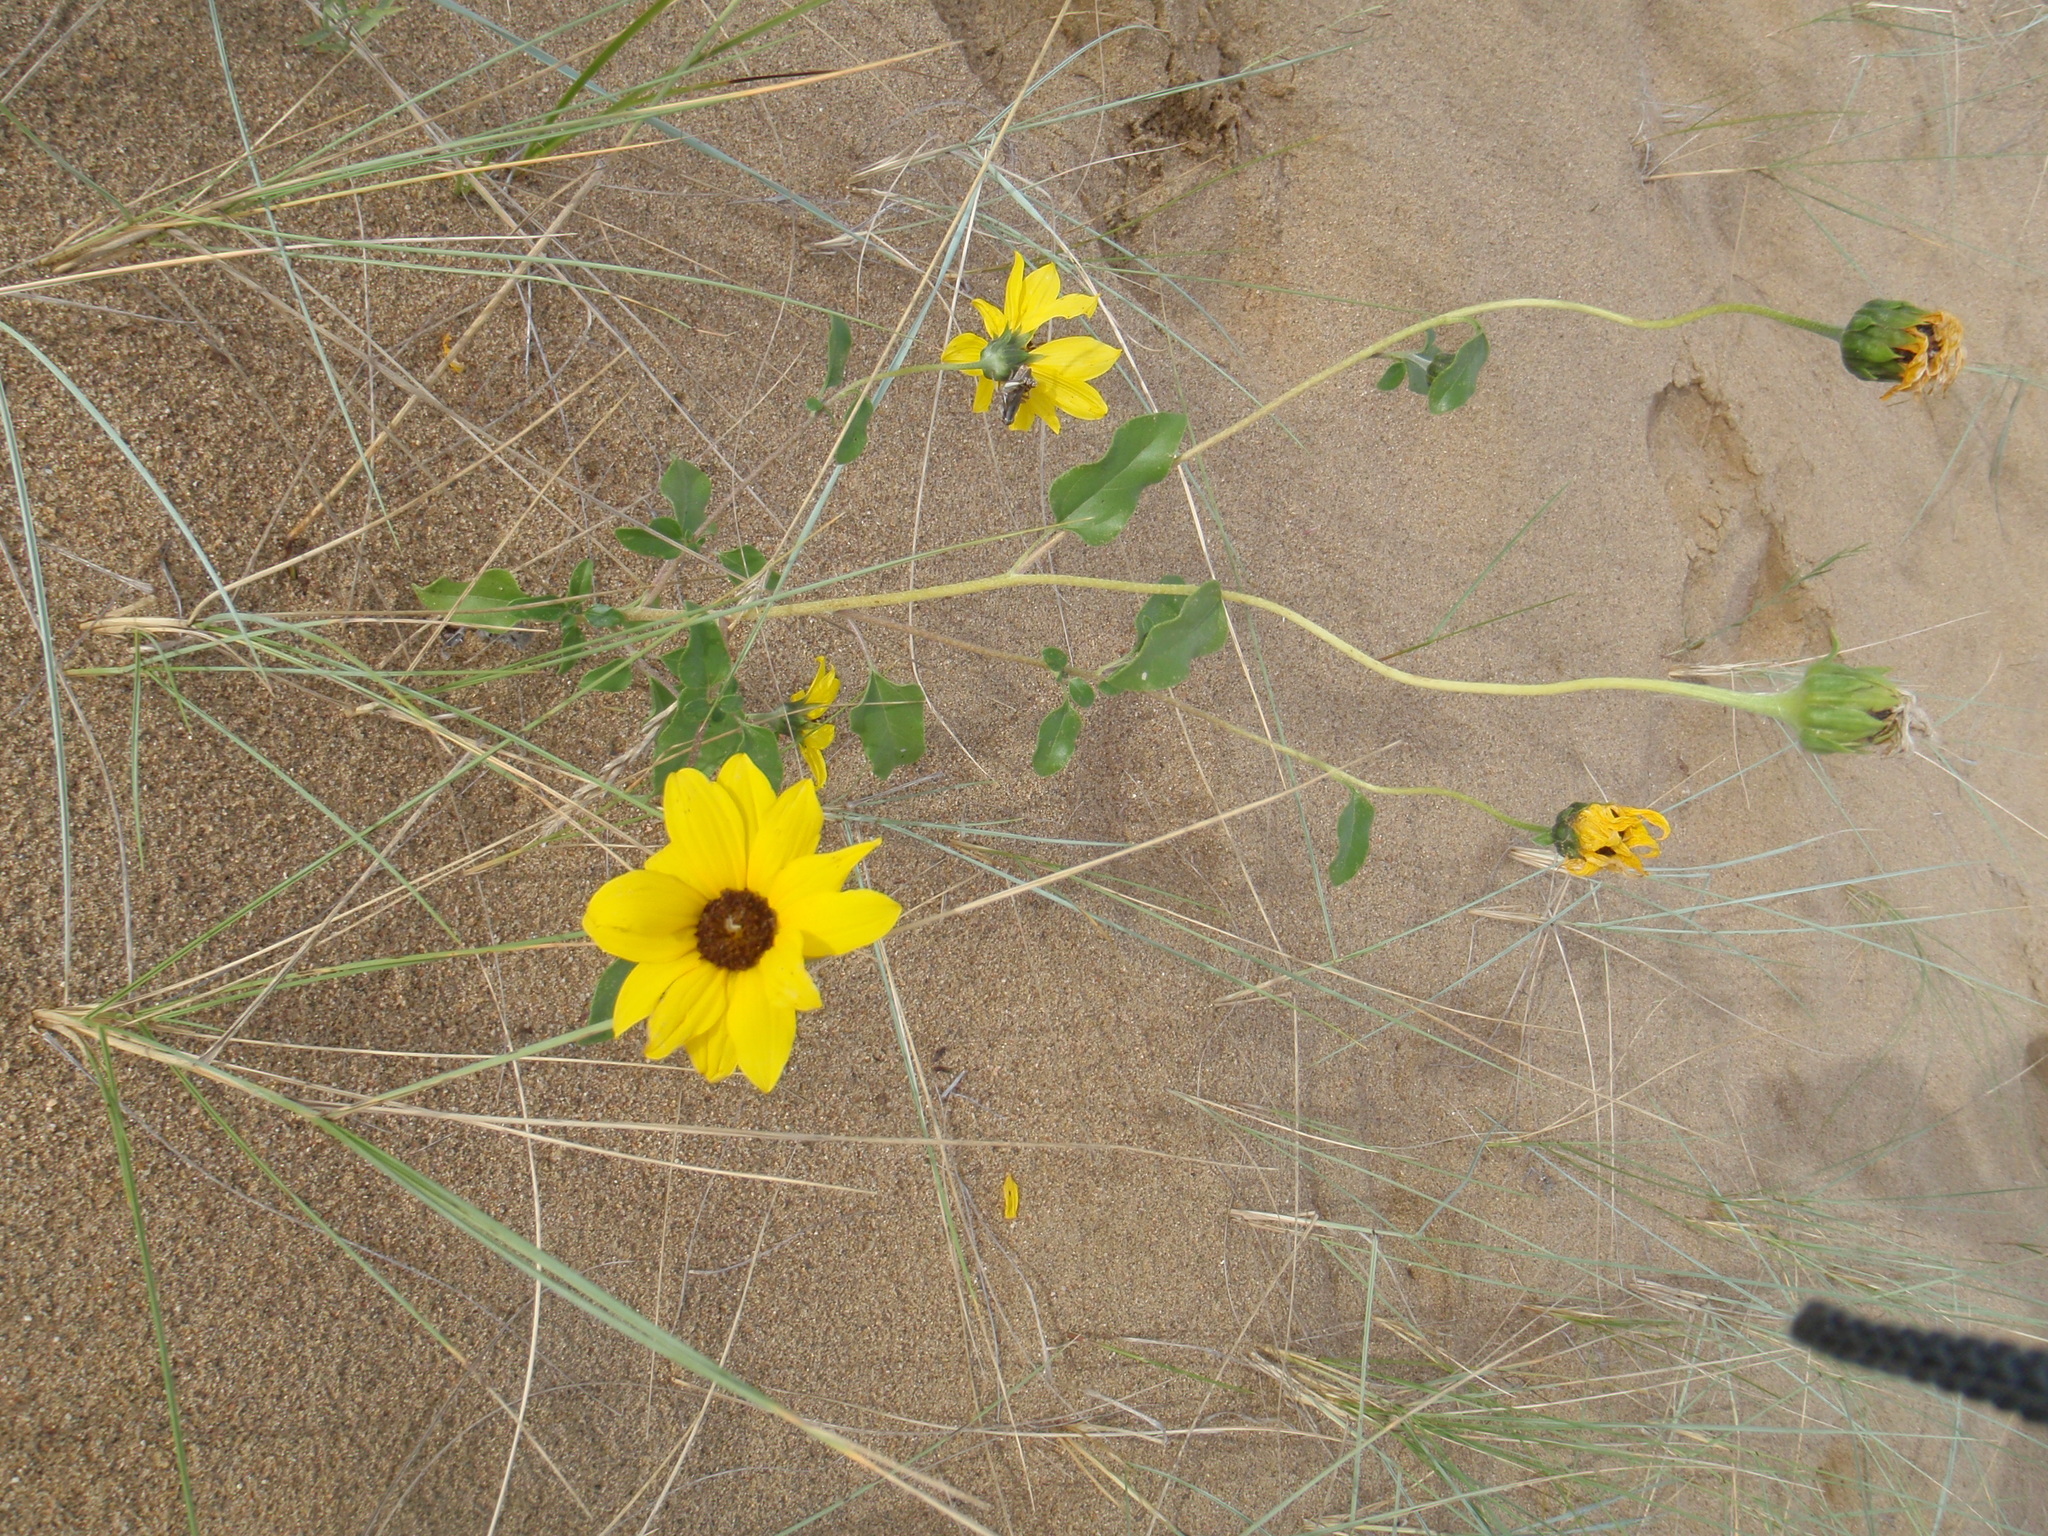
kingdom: Plantae
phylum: Tracheophyta
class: Magnoliopsida
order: Asterales
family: Asteraceae
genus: Helianthus
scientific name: Helianthus petiolaris
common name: Lesser sunflower
